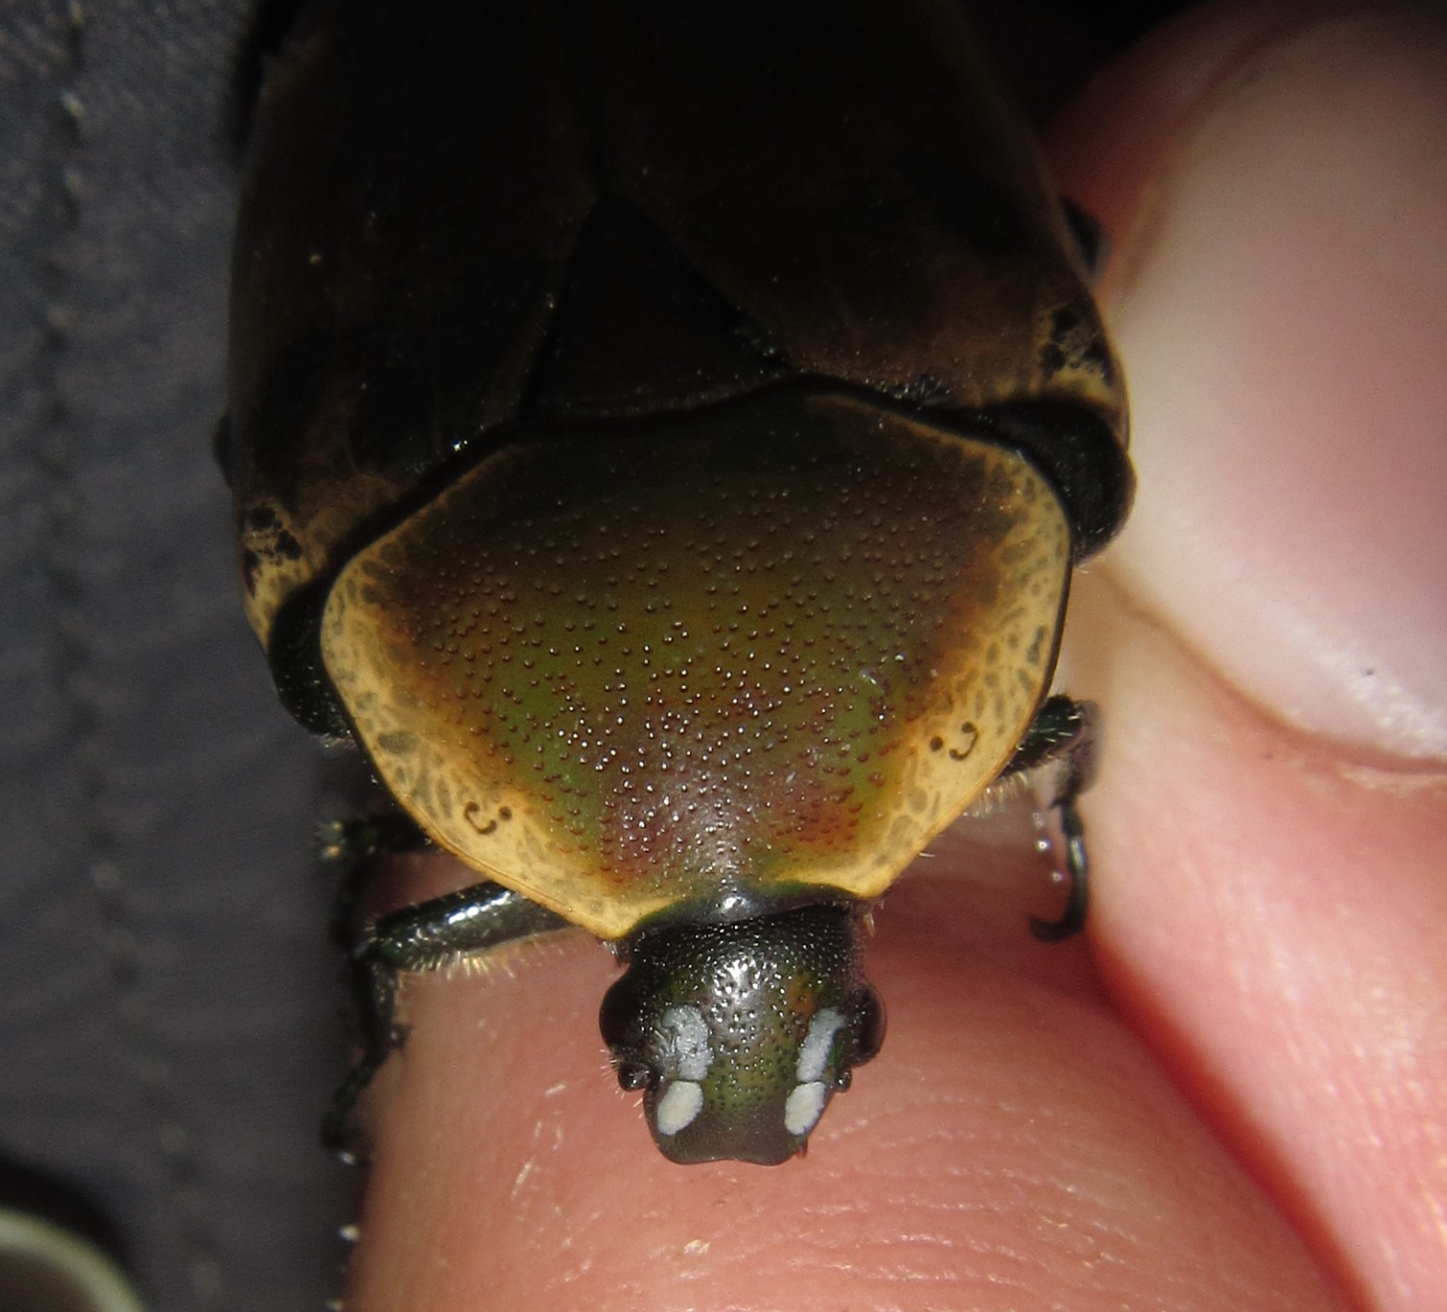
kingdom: Animalia
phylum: Arthropoda
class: Insecta
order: Coleoptera
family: Scarabaeidae
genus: Dischista
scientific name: Dischista rufa
